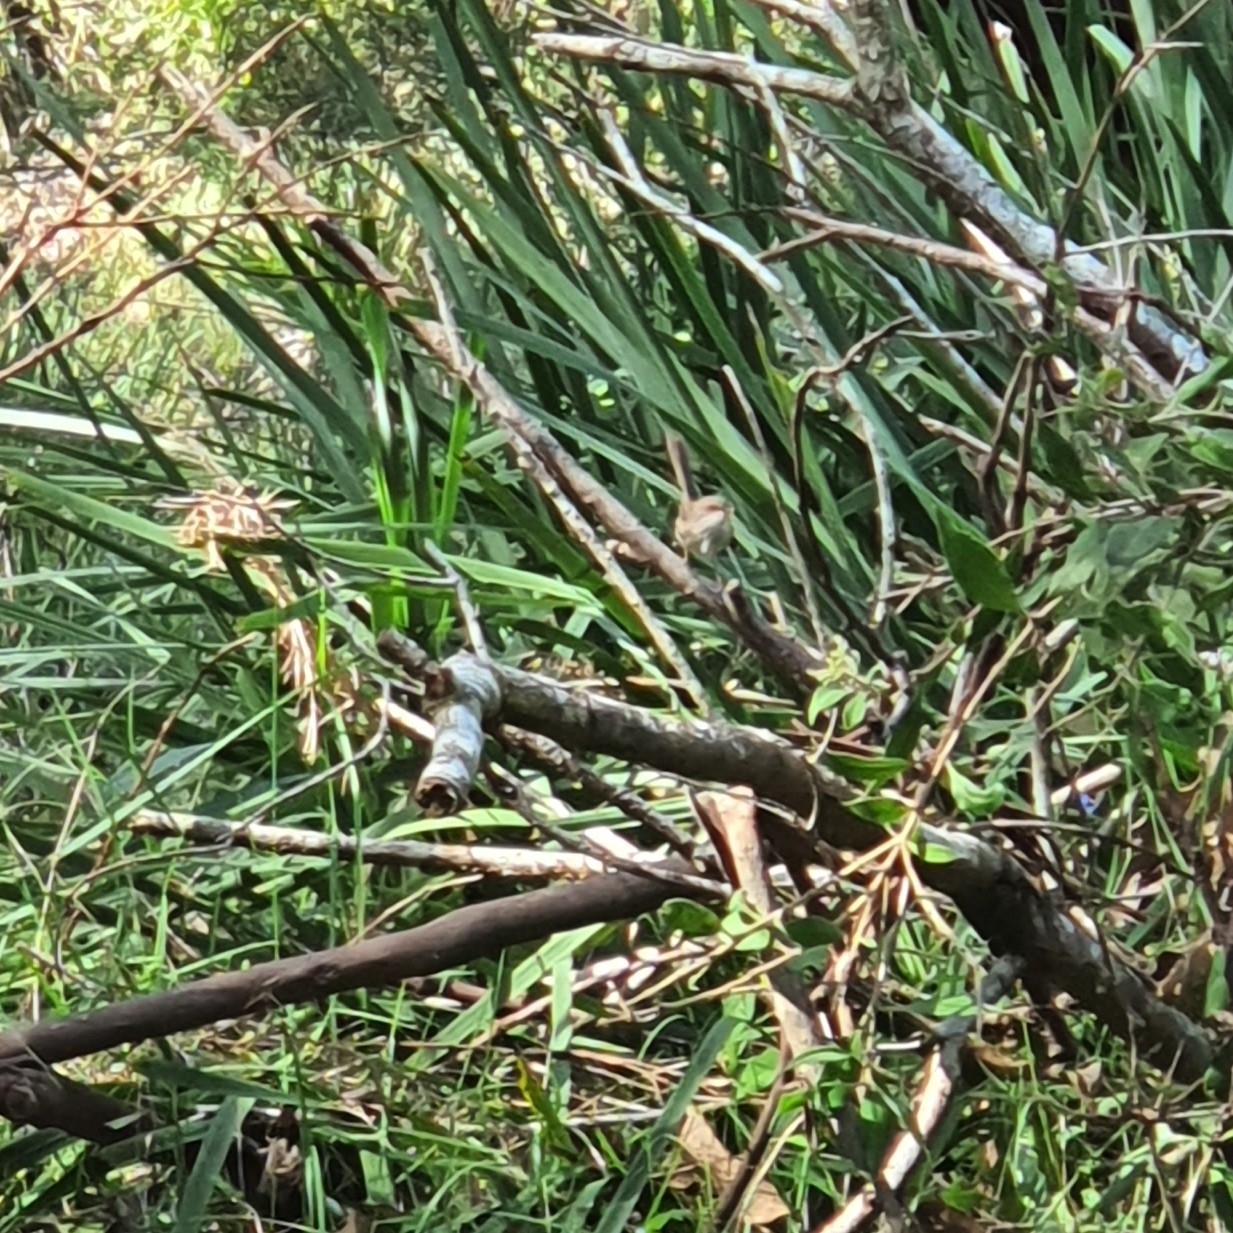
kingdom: Animalia
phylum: Chordata
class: Aves
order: Passeriformes
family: Maluridae
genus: Malurus
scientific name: Malurus cyaneus
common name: Superb fairywren
